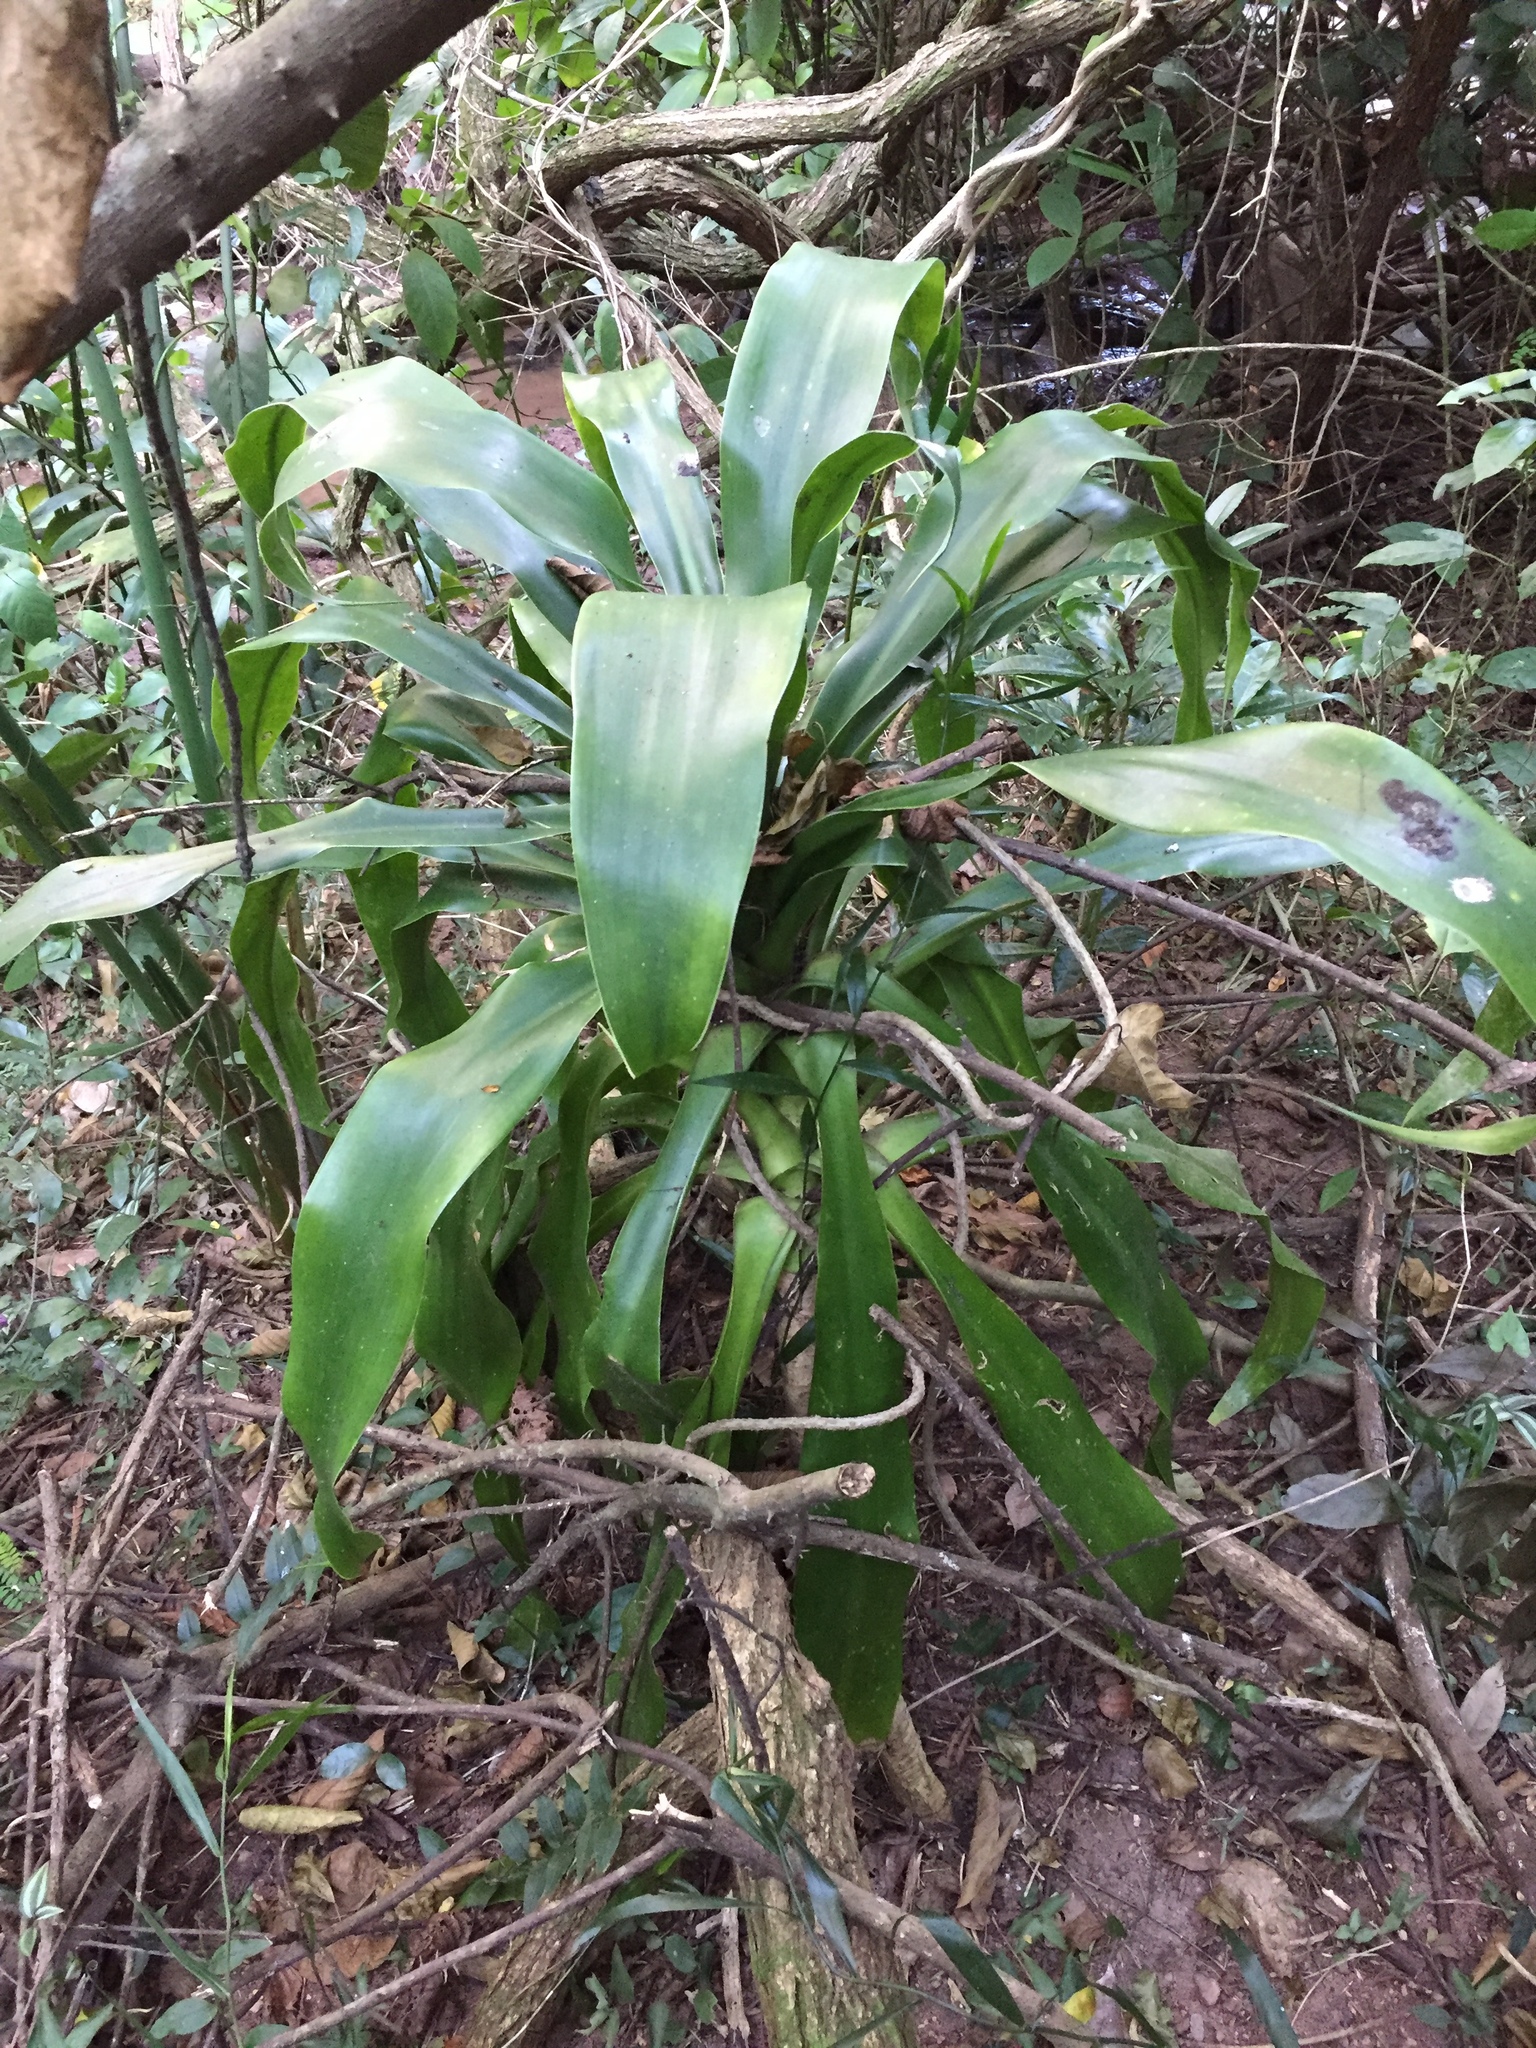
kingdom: Plantae
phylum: Tracheophyta
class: Liliopsida
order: Asparagales
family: Asparagaceae
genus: Dracaena
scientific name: Dracaena aletriformis
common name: Large-leaved dragon tree
